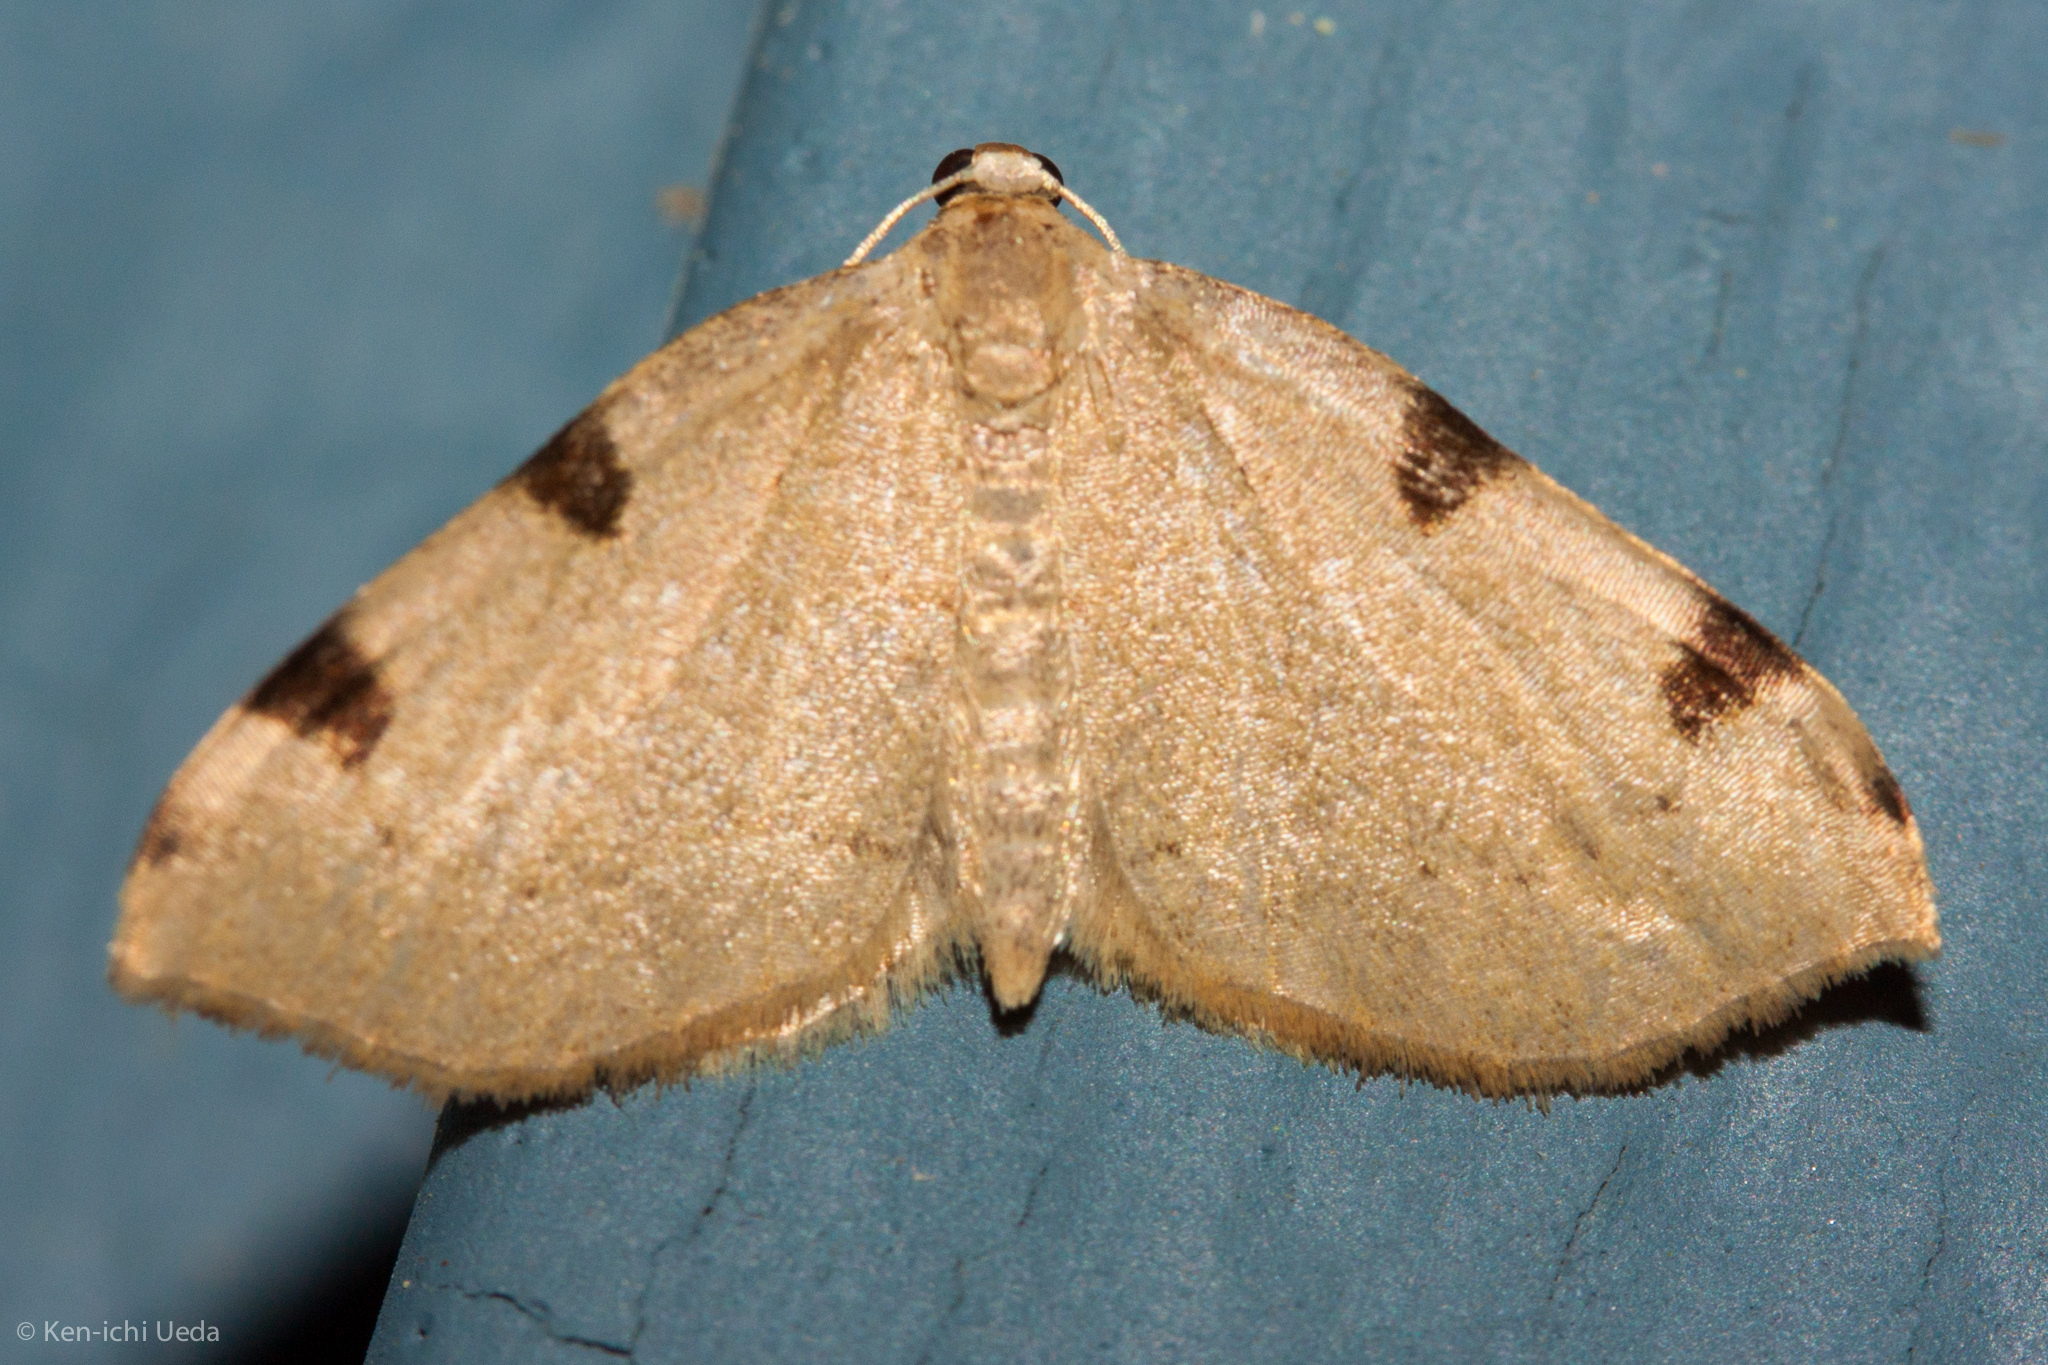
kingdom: Animalia
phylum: Arthropoda
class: Insecta
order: Lepidoptera
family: Geometridae
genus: Heterophleps
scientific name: Heterophleps triguttaria
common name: Three-spotted fillip
